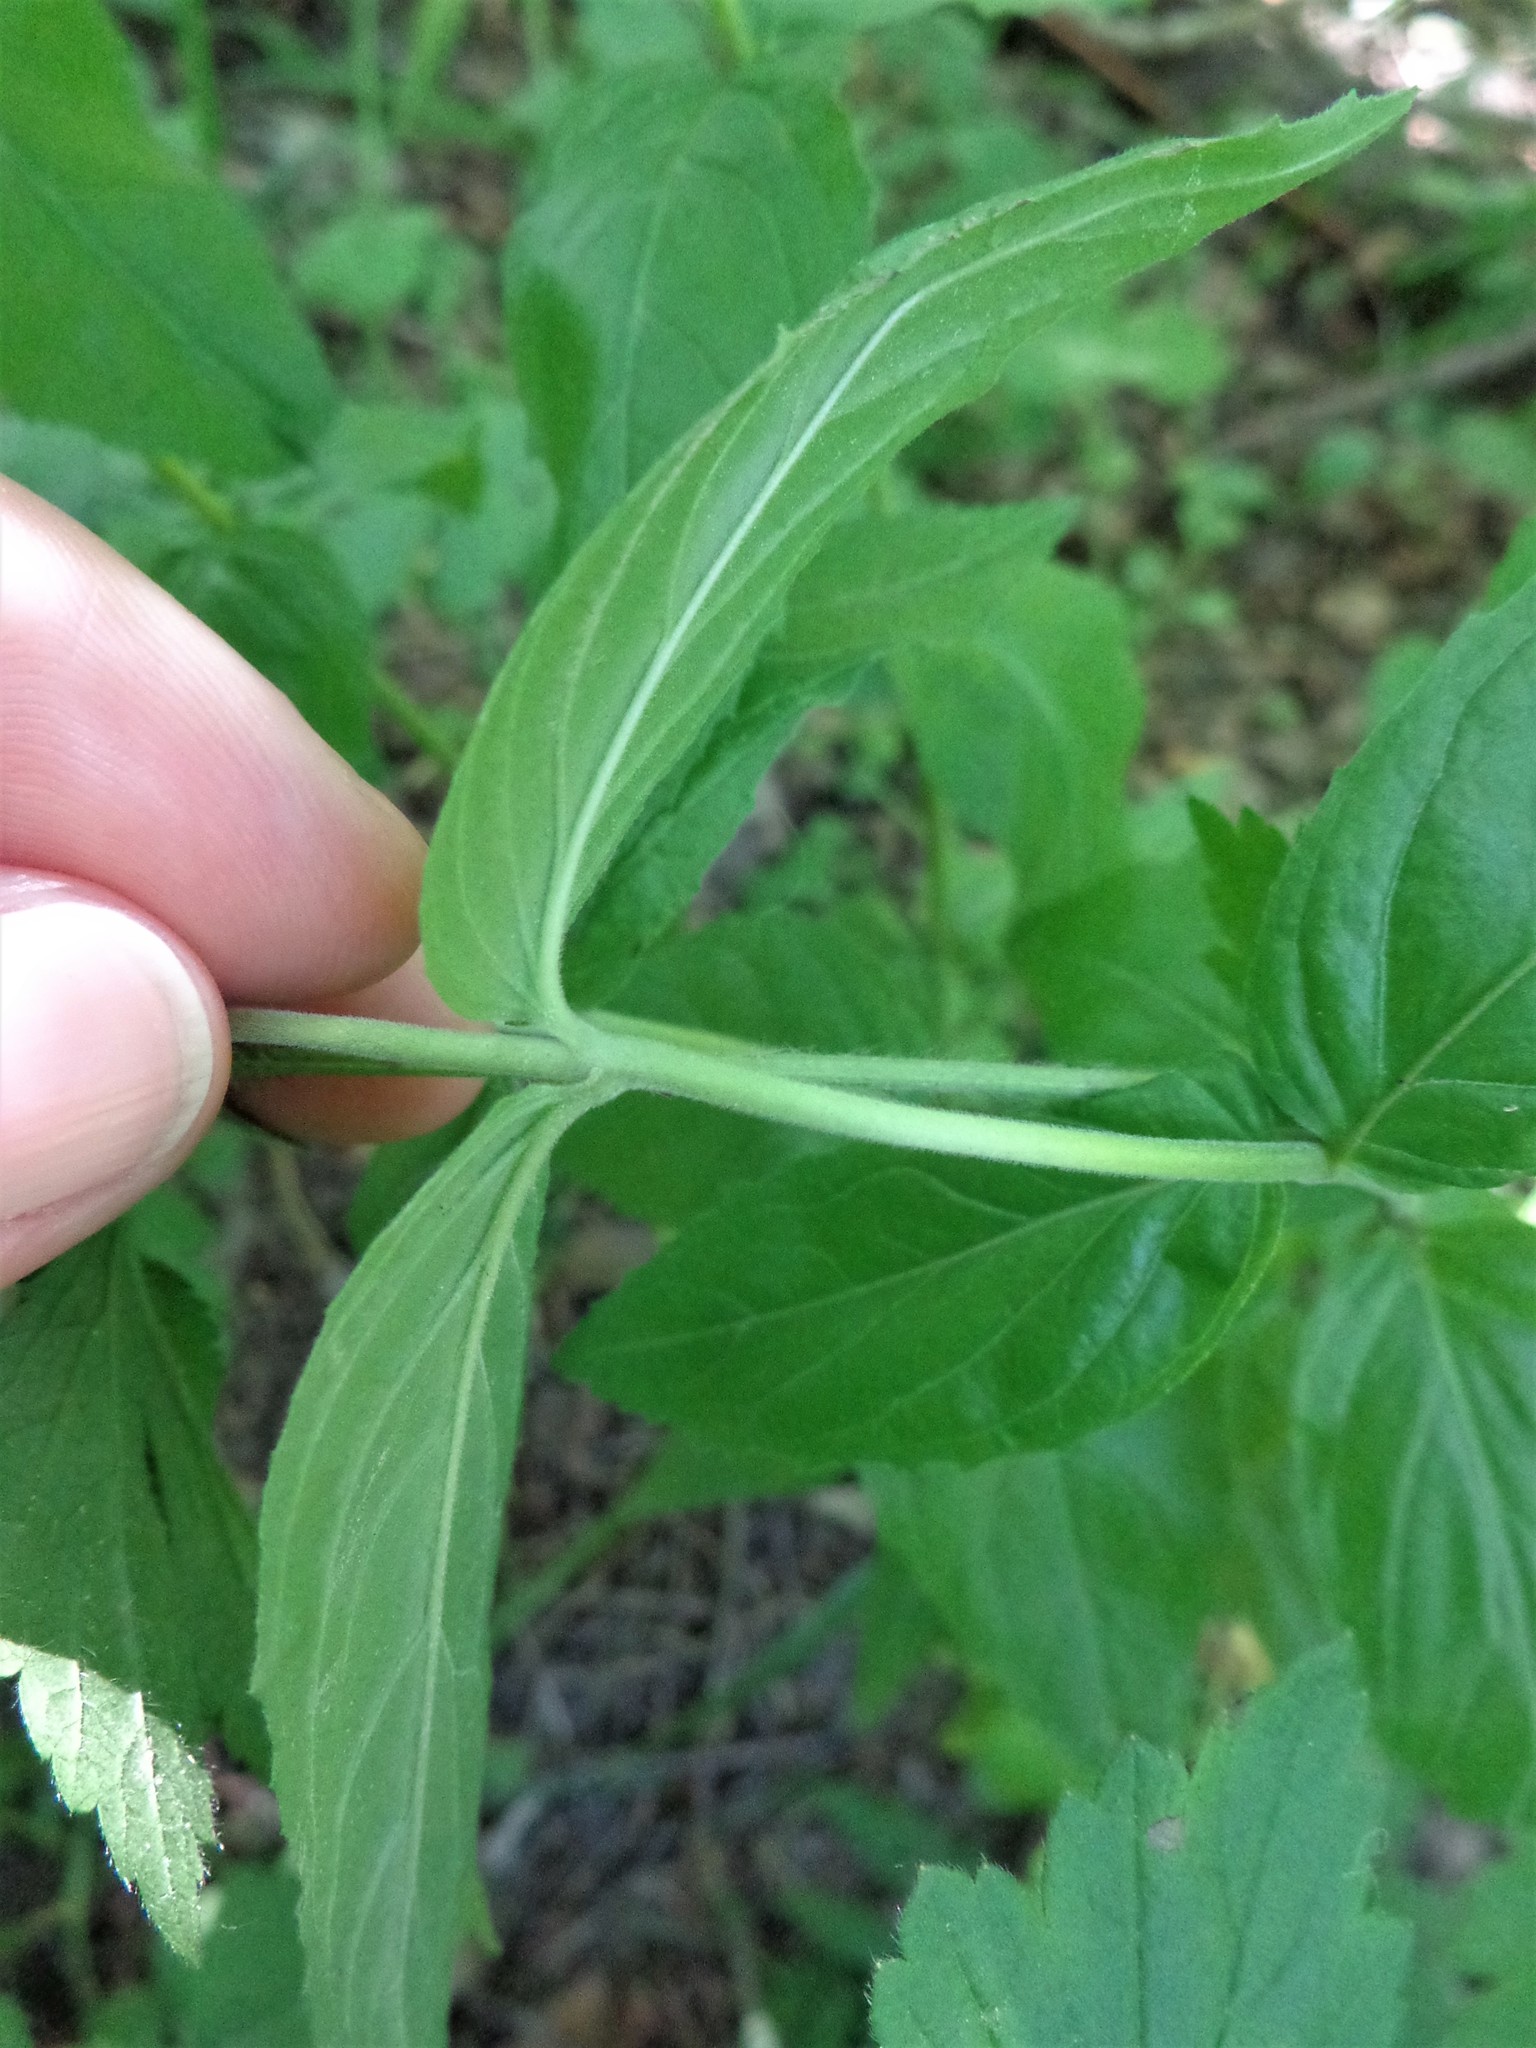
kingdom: Plantae
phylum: Tracheophyta
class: Magnoliopsida
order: Myrtales
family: Onagraceae
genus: Epilobium
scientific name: Epilobium montanum
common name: Broad-leaved willowherb
